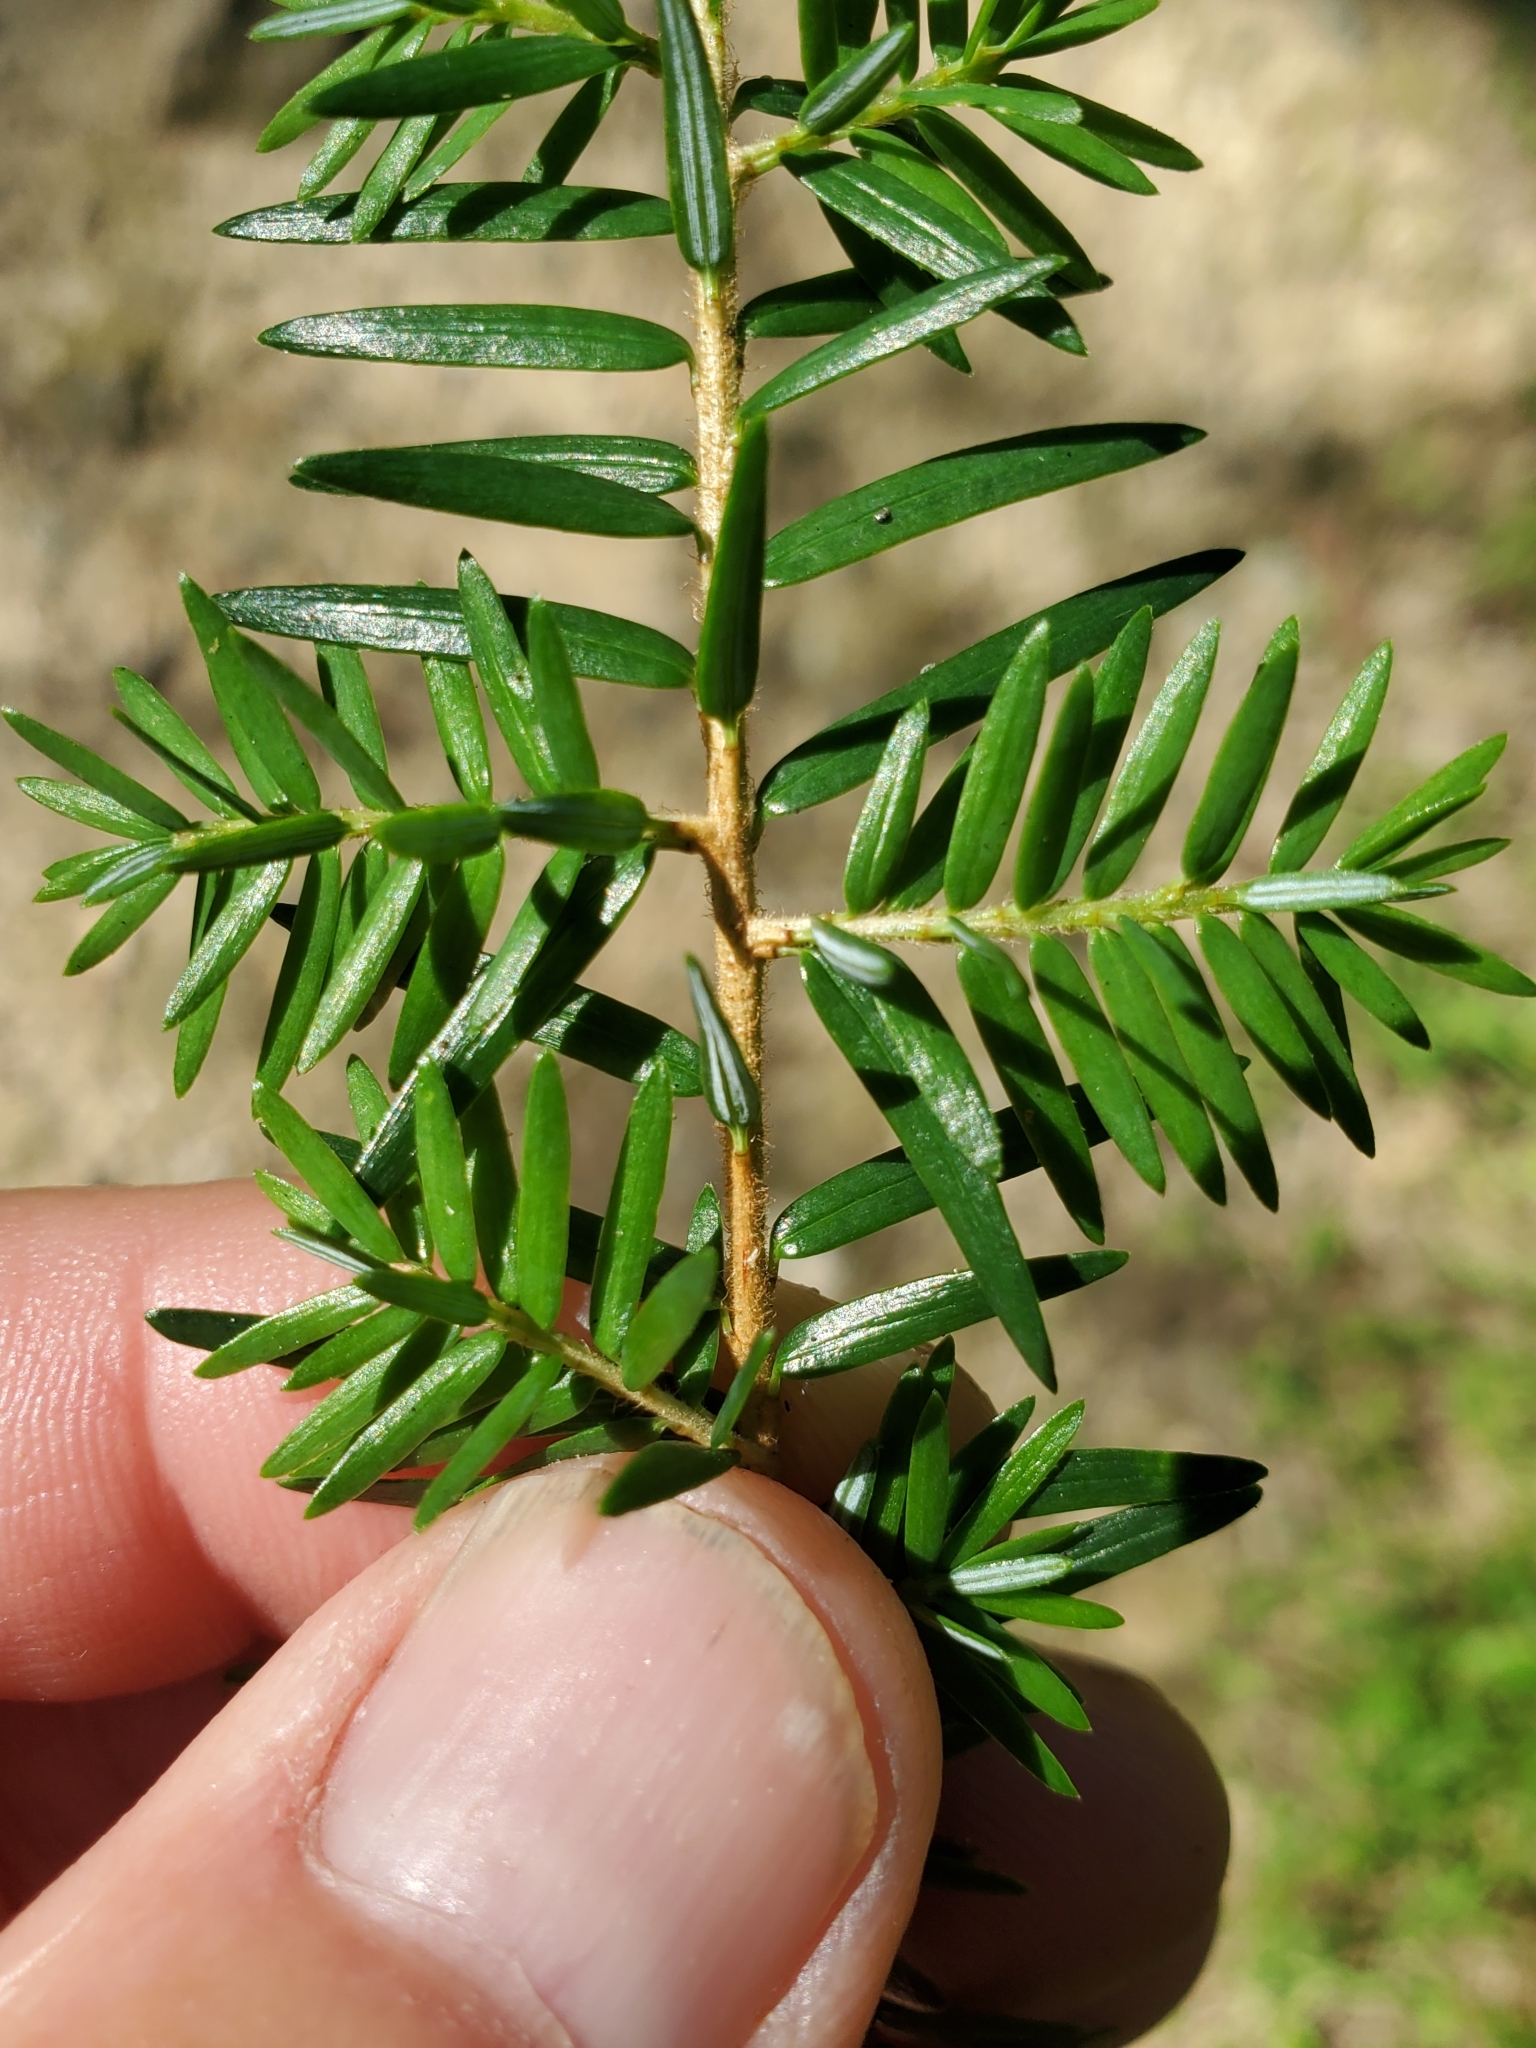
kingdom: Plantae
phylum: Tracheophyta
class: Pinopsida
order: Pinales
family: Pinaceae
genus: Tsuga
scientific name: Tsuga canadensis
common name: Eastern hemlock
